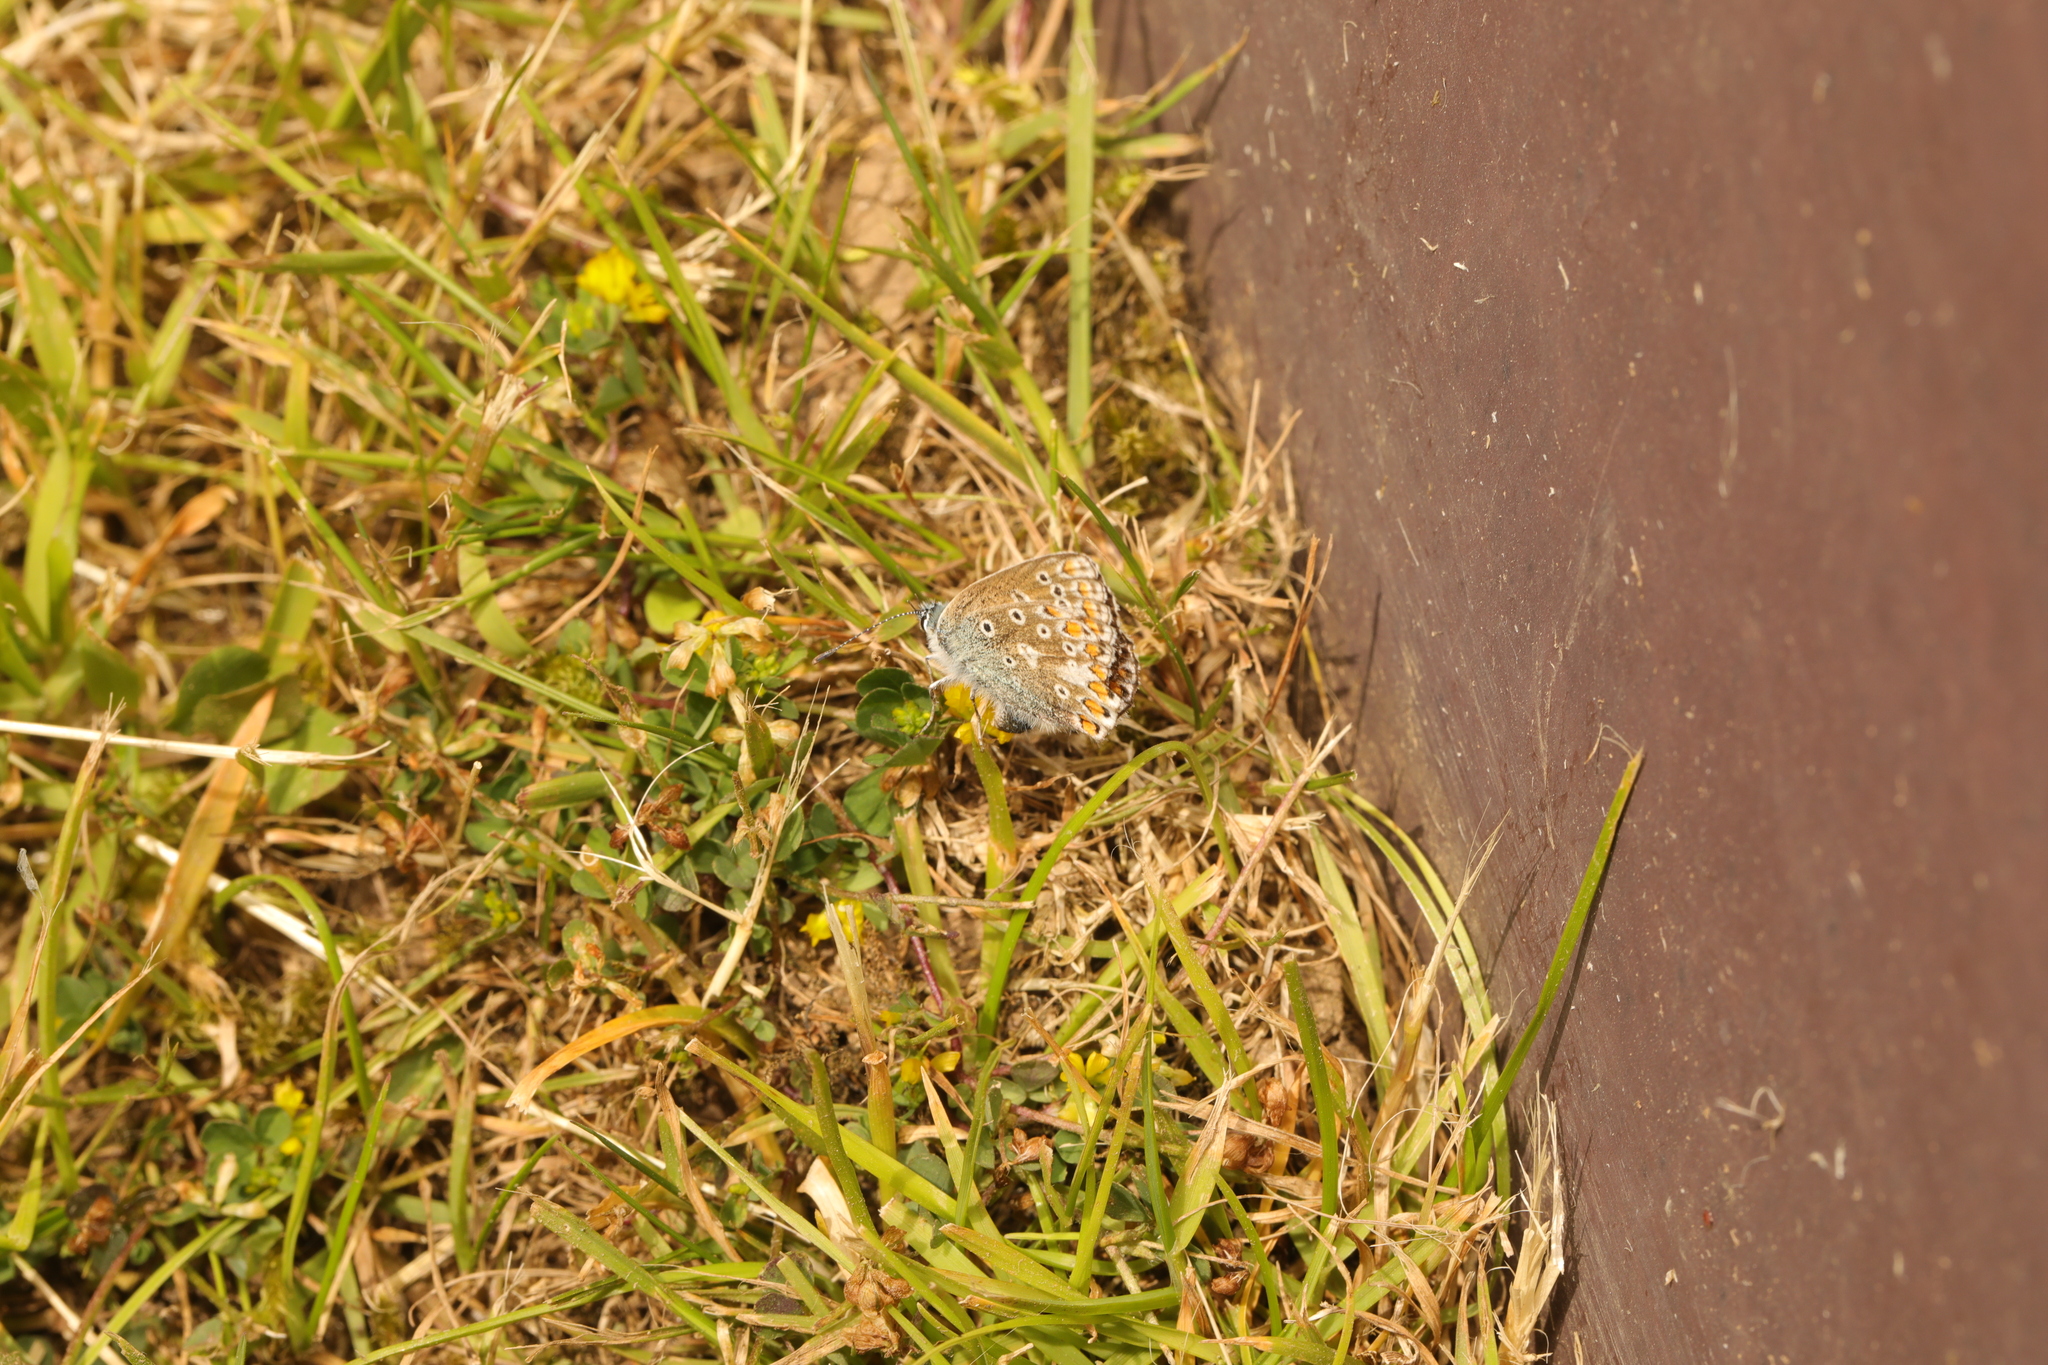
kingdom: Animalia
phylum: Arthropoda
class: Insecta
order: Lepidoptera
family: Lycaenidae
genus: Polyommatus
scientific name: Polyommatus icarus
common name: Common blue
